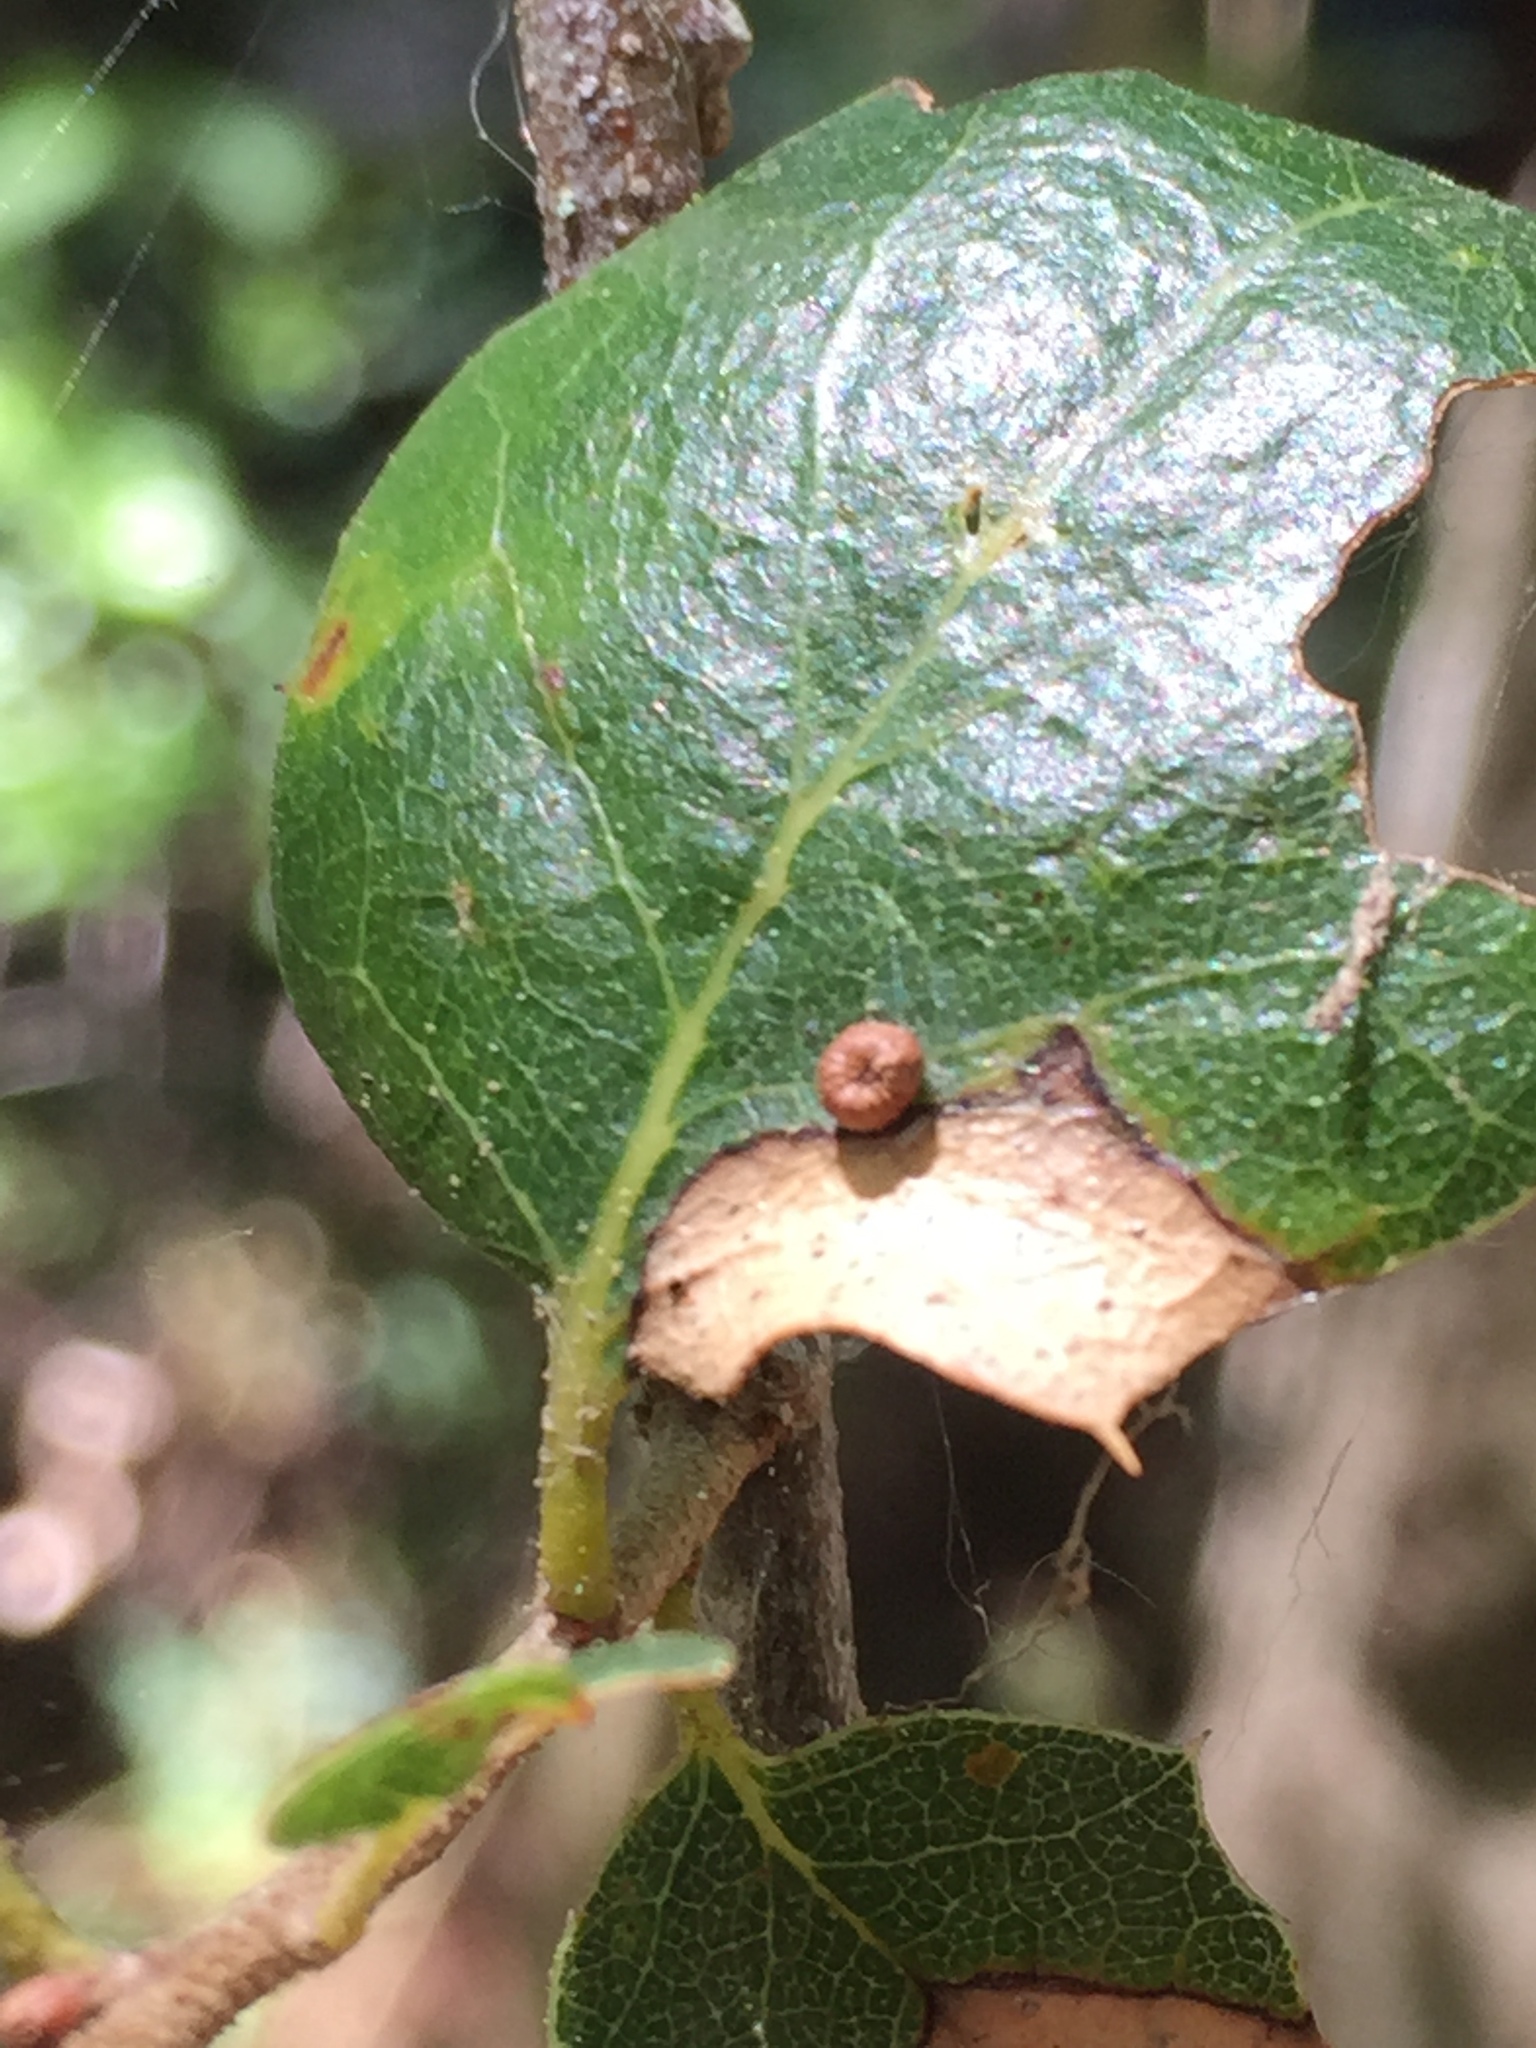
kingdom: Animalia
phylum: Arthropoda
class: Insecta
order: Hymenoptera
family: Cynipidae
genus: Dryocosmus
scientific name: Dryocosmus
